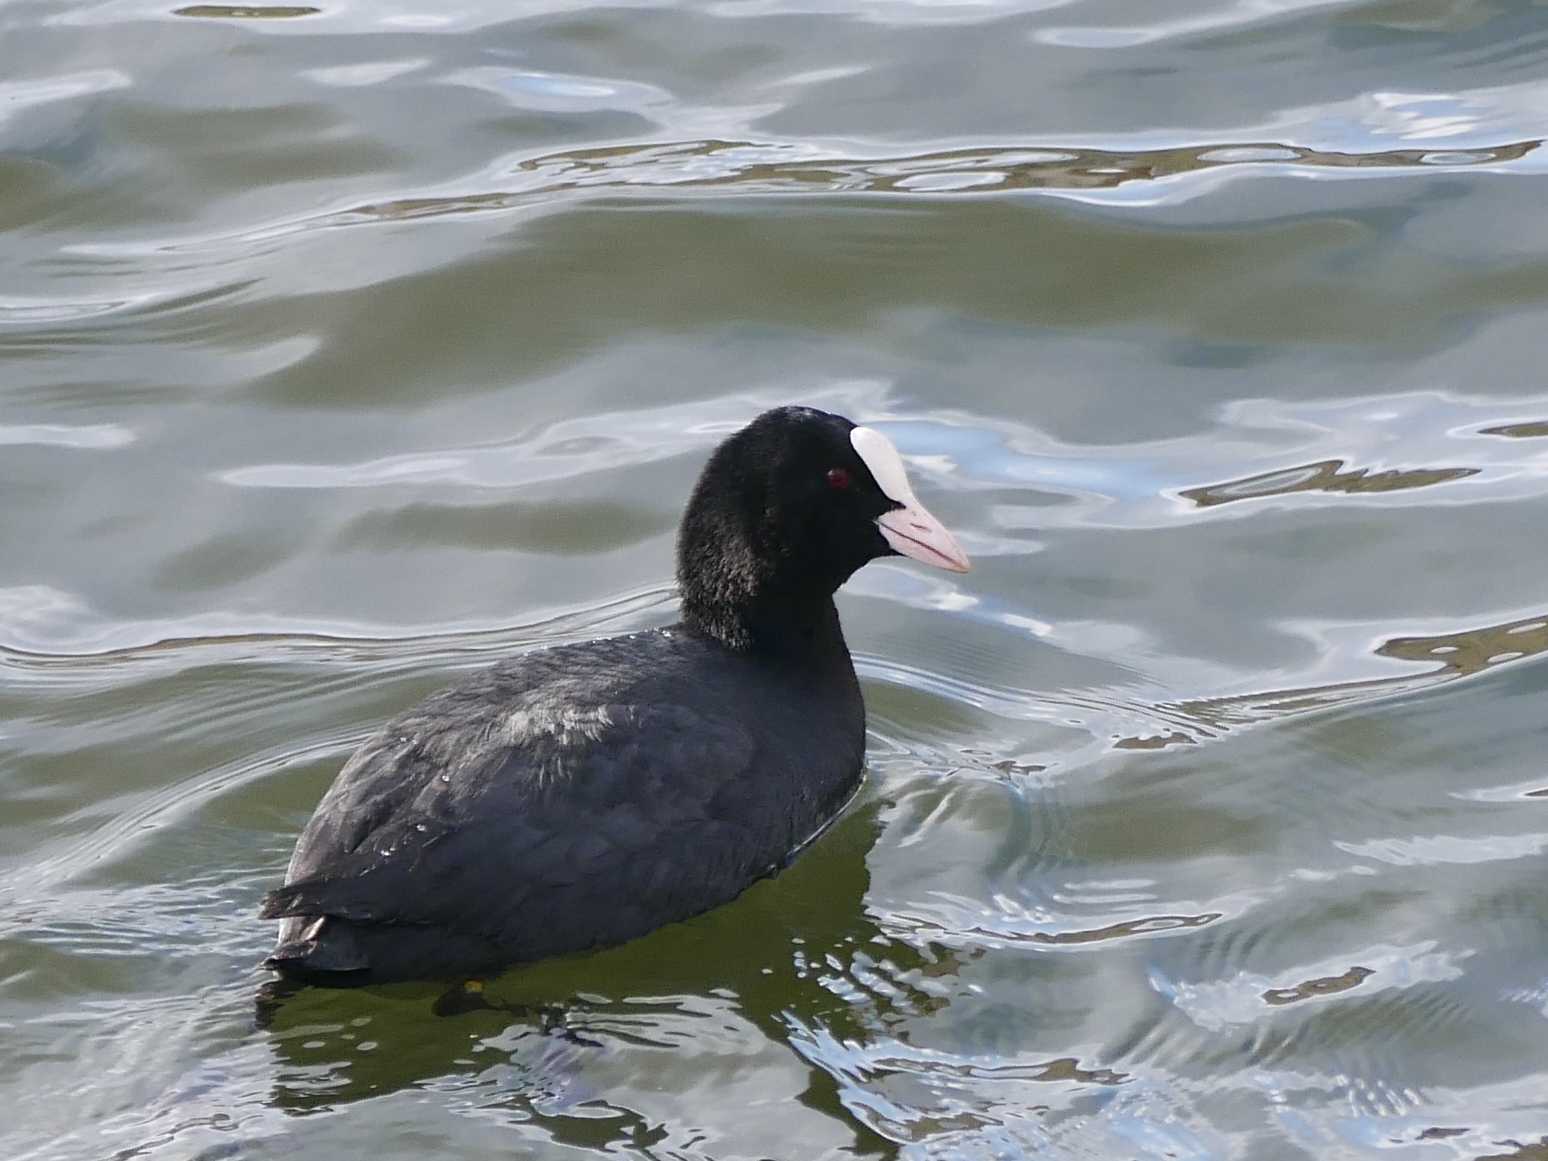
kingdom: Animalia
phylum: Chordata
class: Aves
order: Gruiformes
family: Rallidae
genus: Fulica
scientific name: Fulica atra
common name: Eurasian coot
